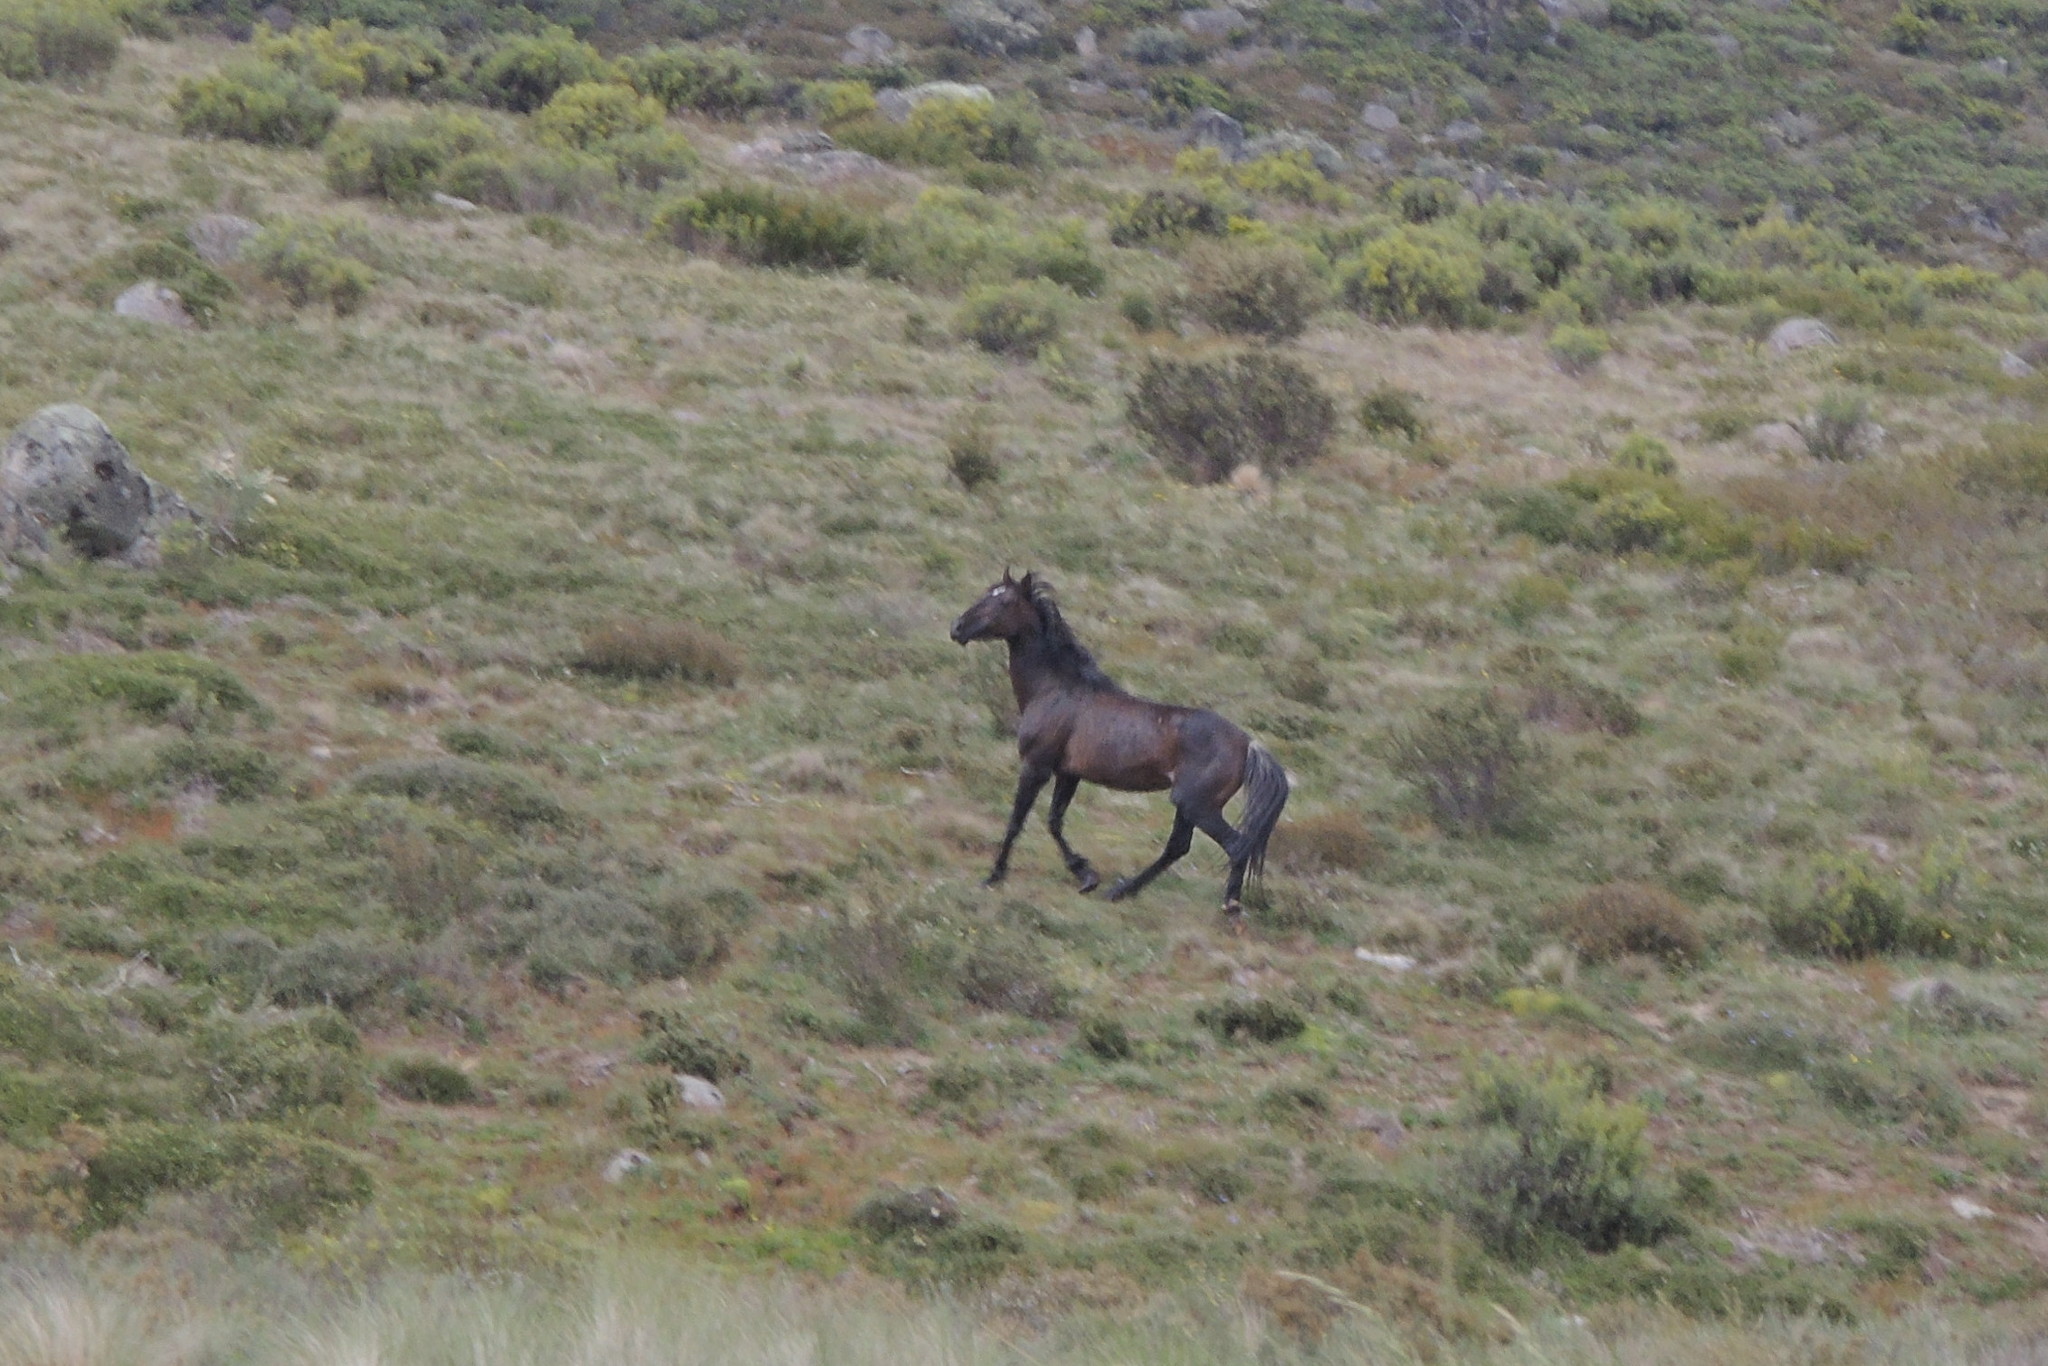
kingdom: Animalia
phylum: Chordata
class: Mammalia
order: Perissodactyla
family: Equidae
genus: Equus
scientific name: Equus caballus
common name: Horse
